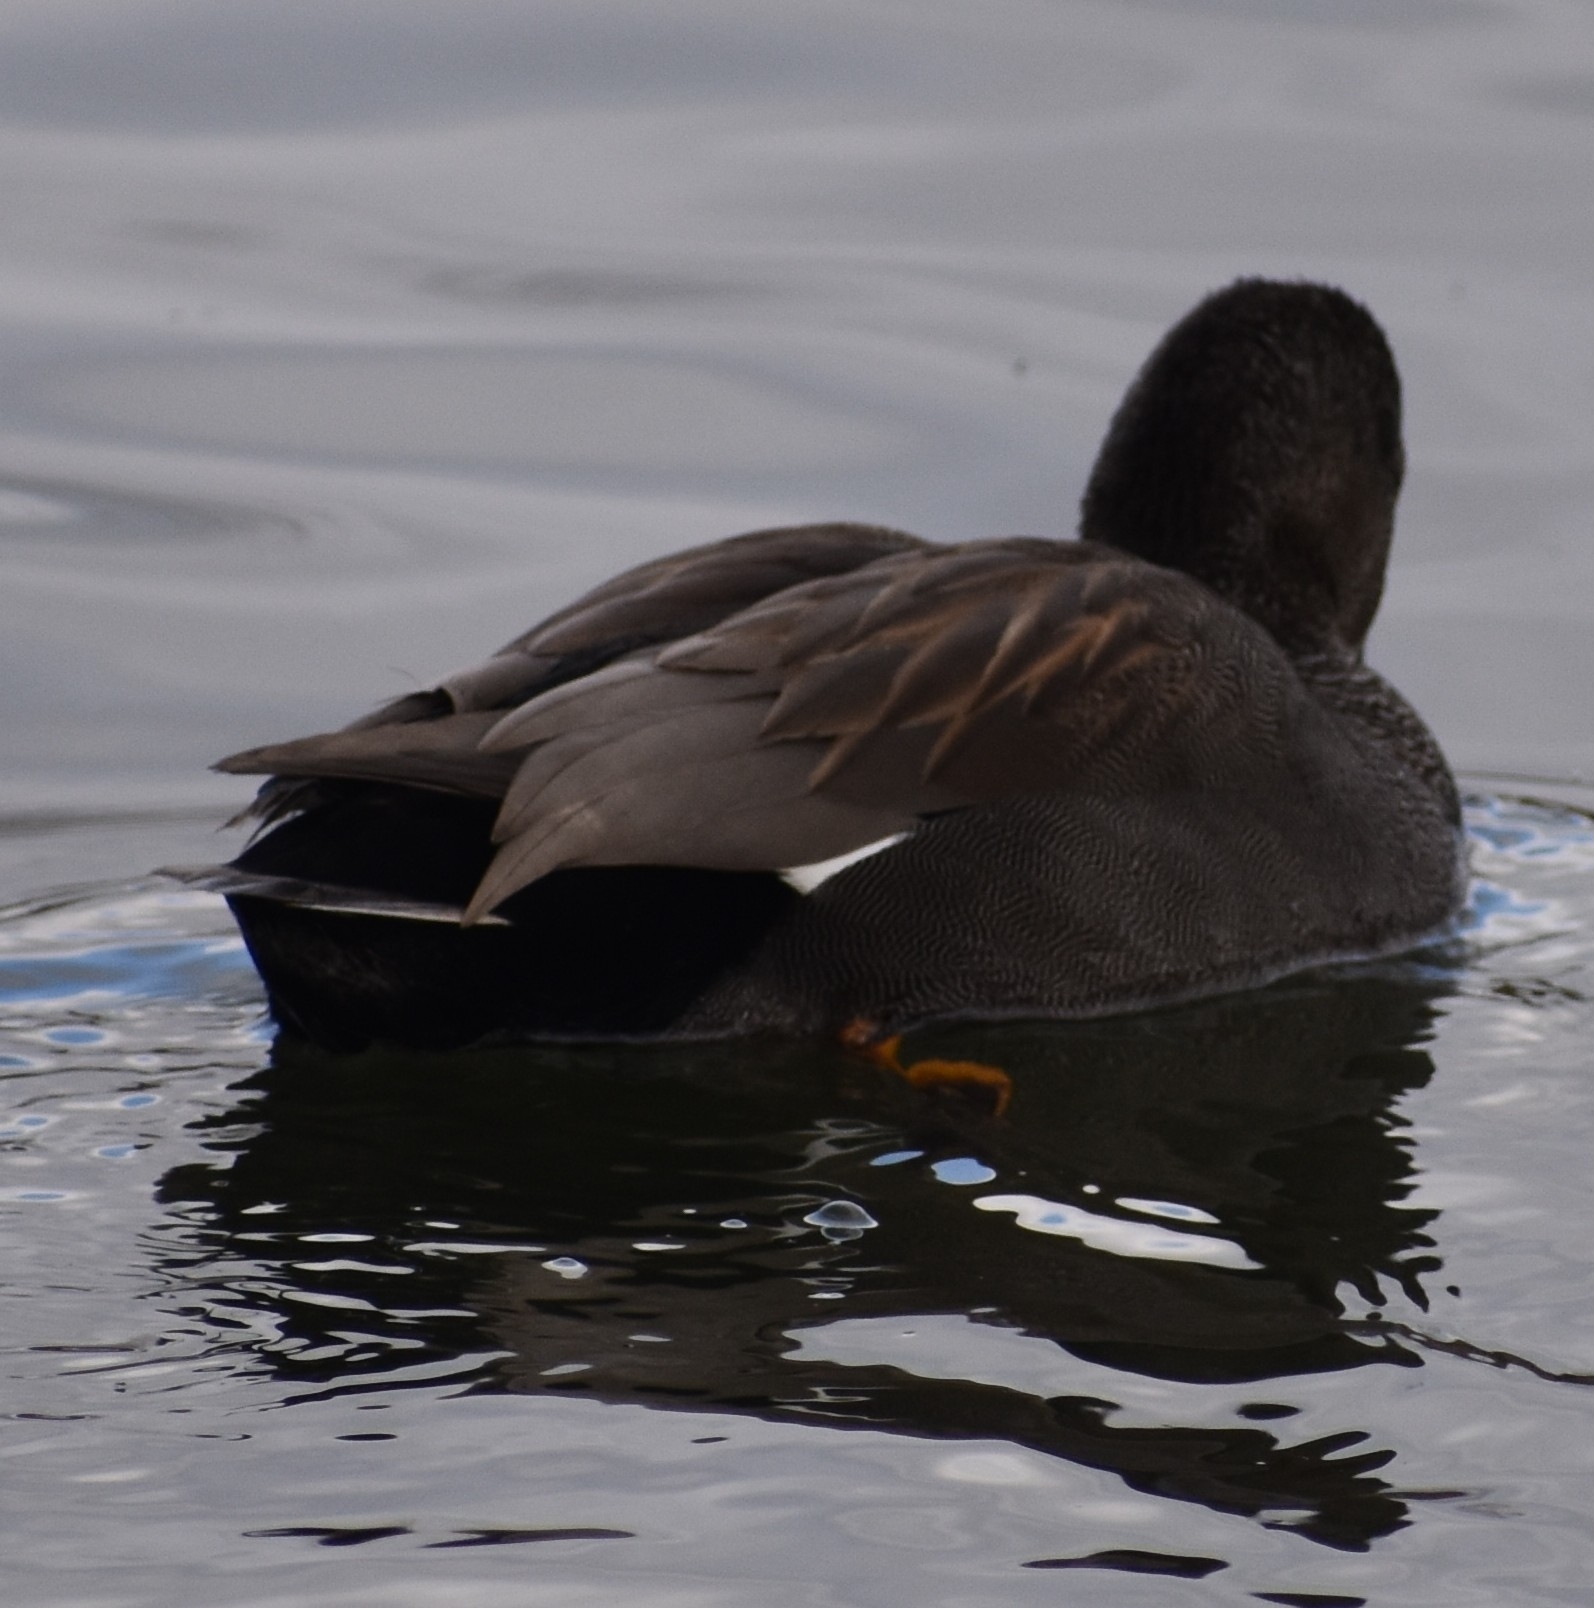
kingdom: Animalia
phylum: Chordata
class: Aves
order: Anseriformes
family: Anatidae
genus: Mareca
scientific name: Mareca strepera
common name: Gadwall
